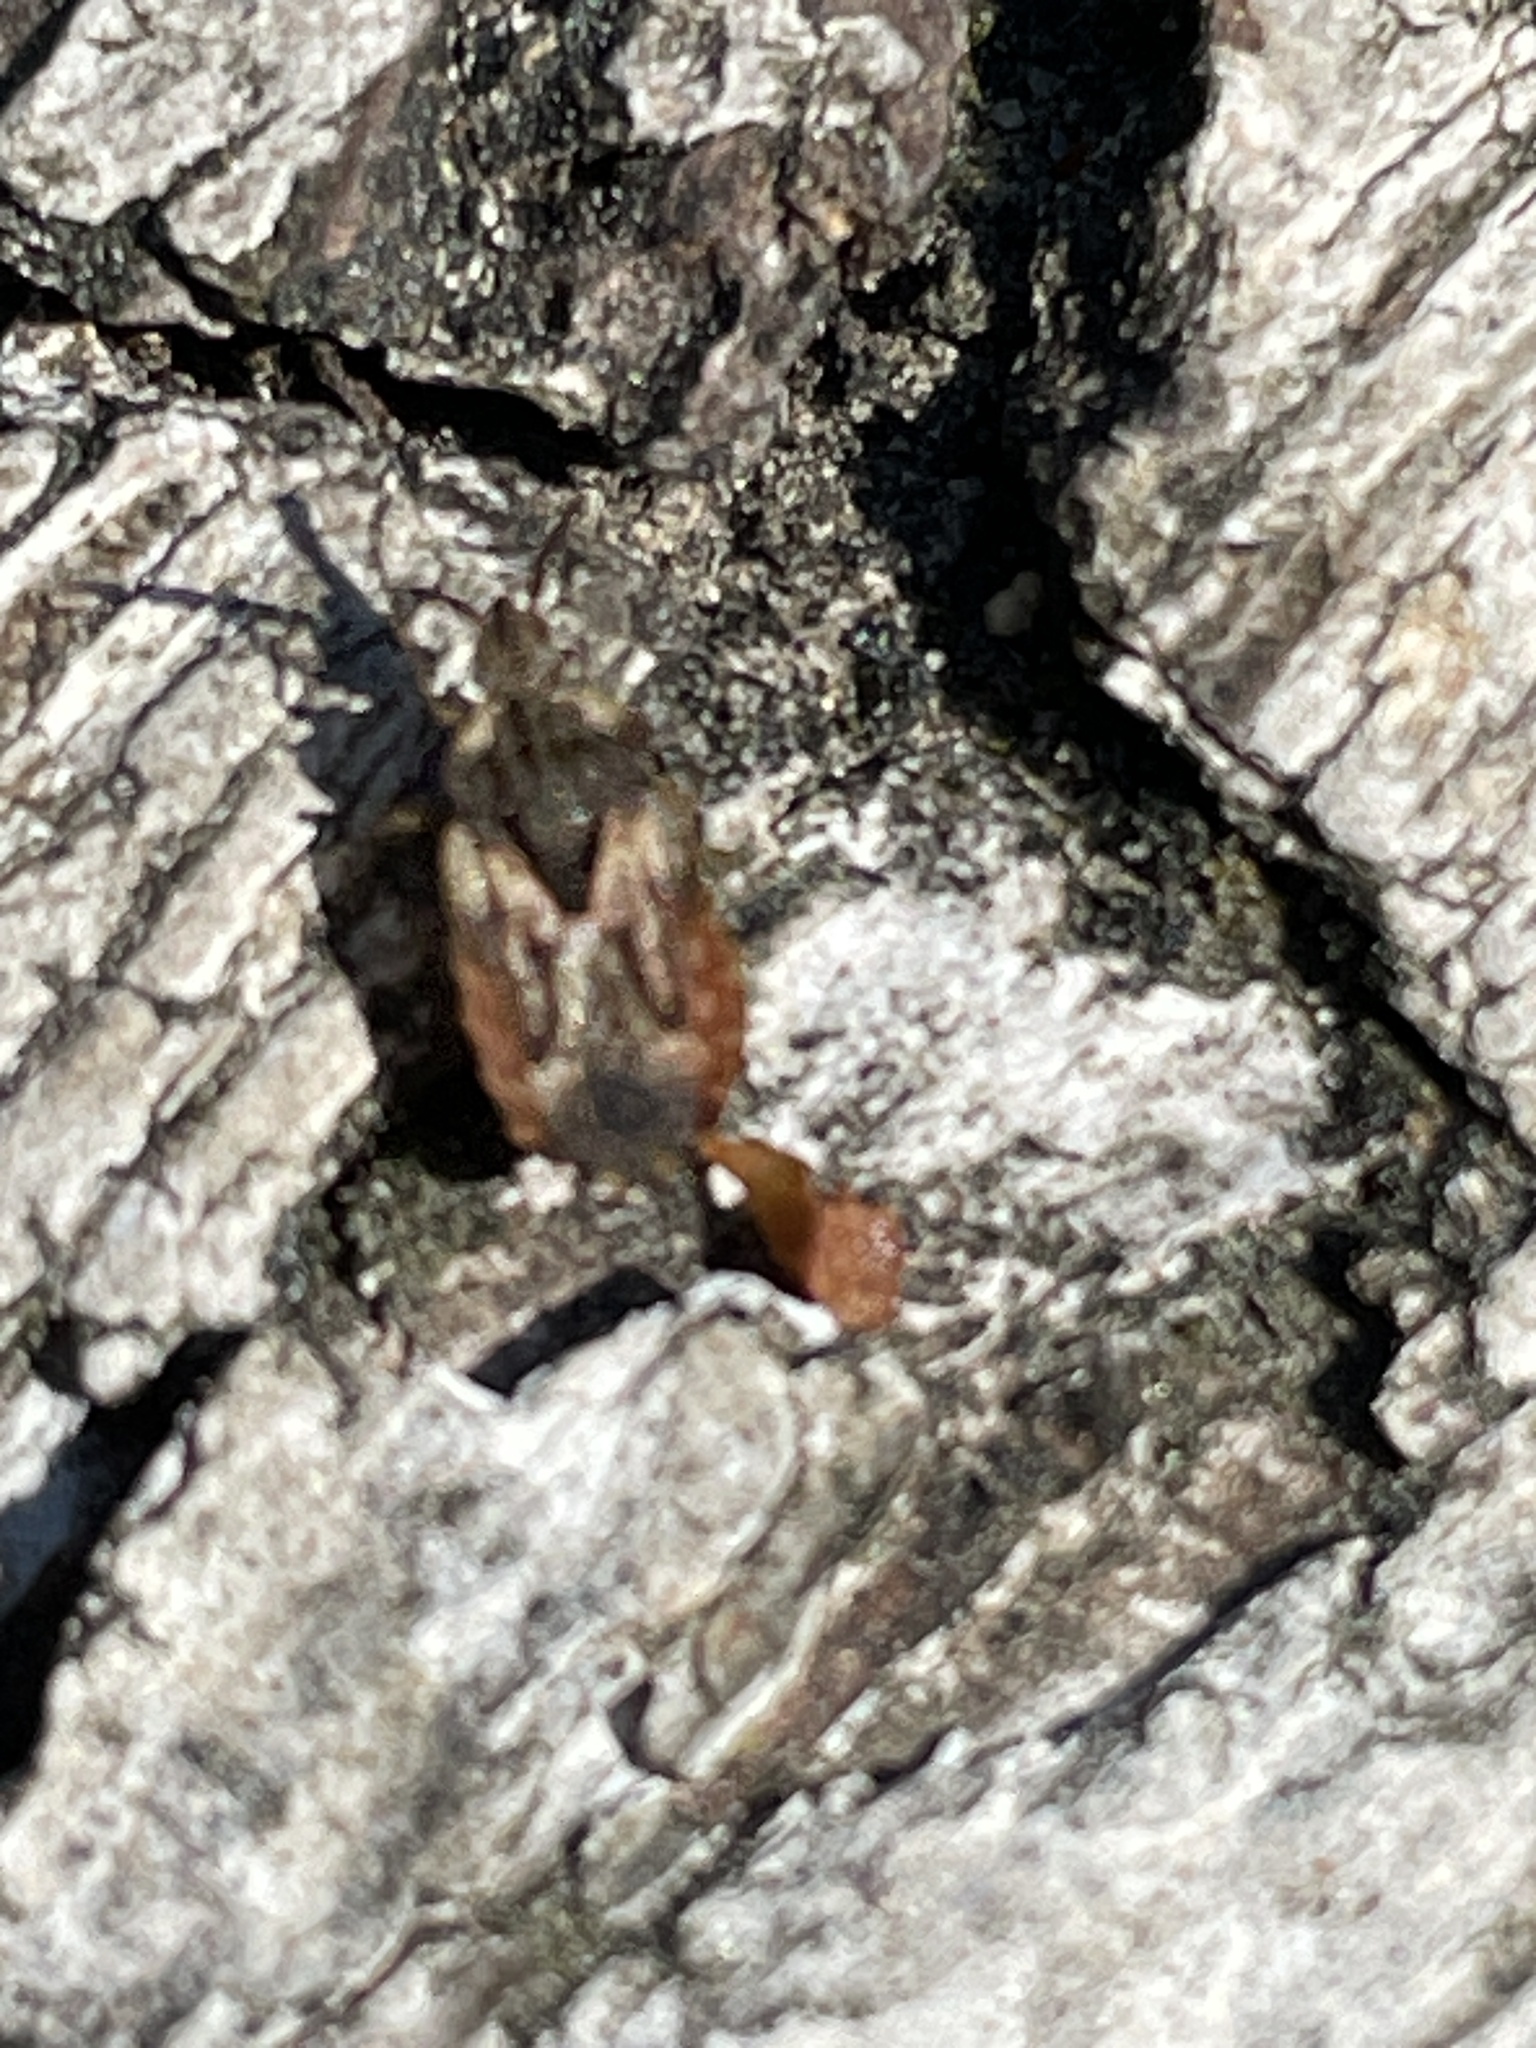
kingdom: Animalia
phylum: Arthropoda
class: Insecta
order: Hemiptera
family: Aradidae
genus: Aradus
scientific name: Aradus depressus
